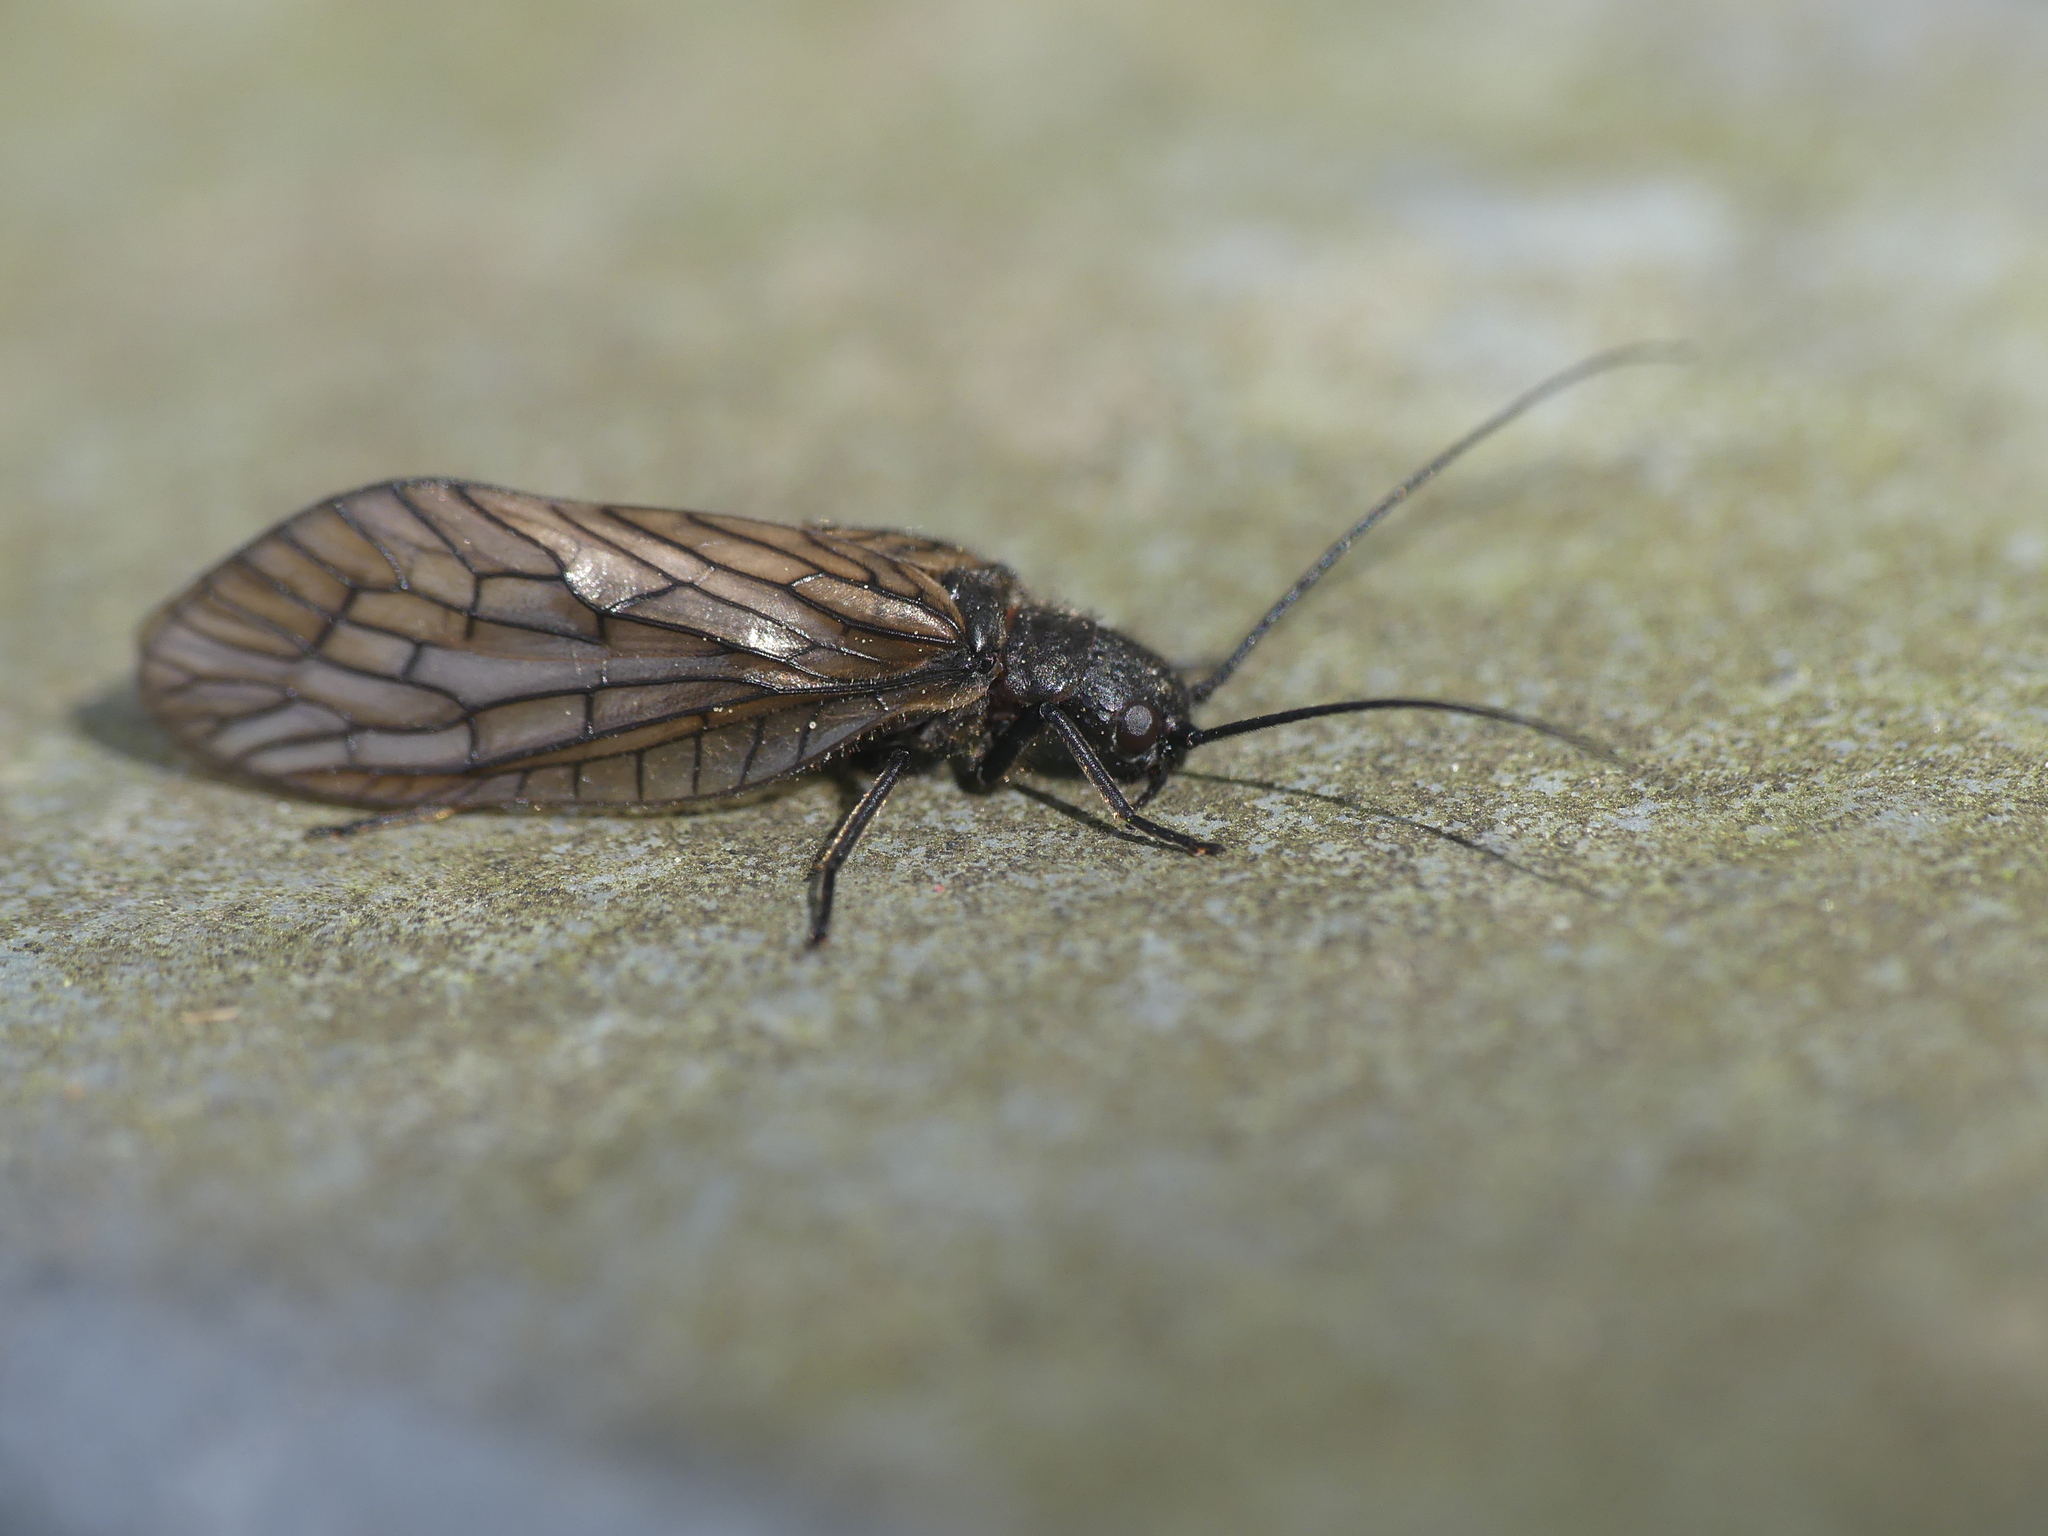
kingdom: Animalia
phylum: Arthropoda
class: Insecta
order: Megaloptera
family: Sialidae
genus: Sialis
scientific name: Sialis
